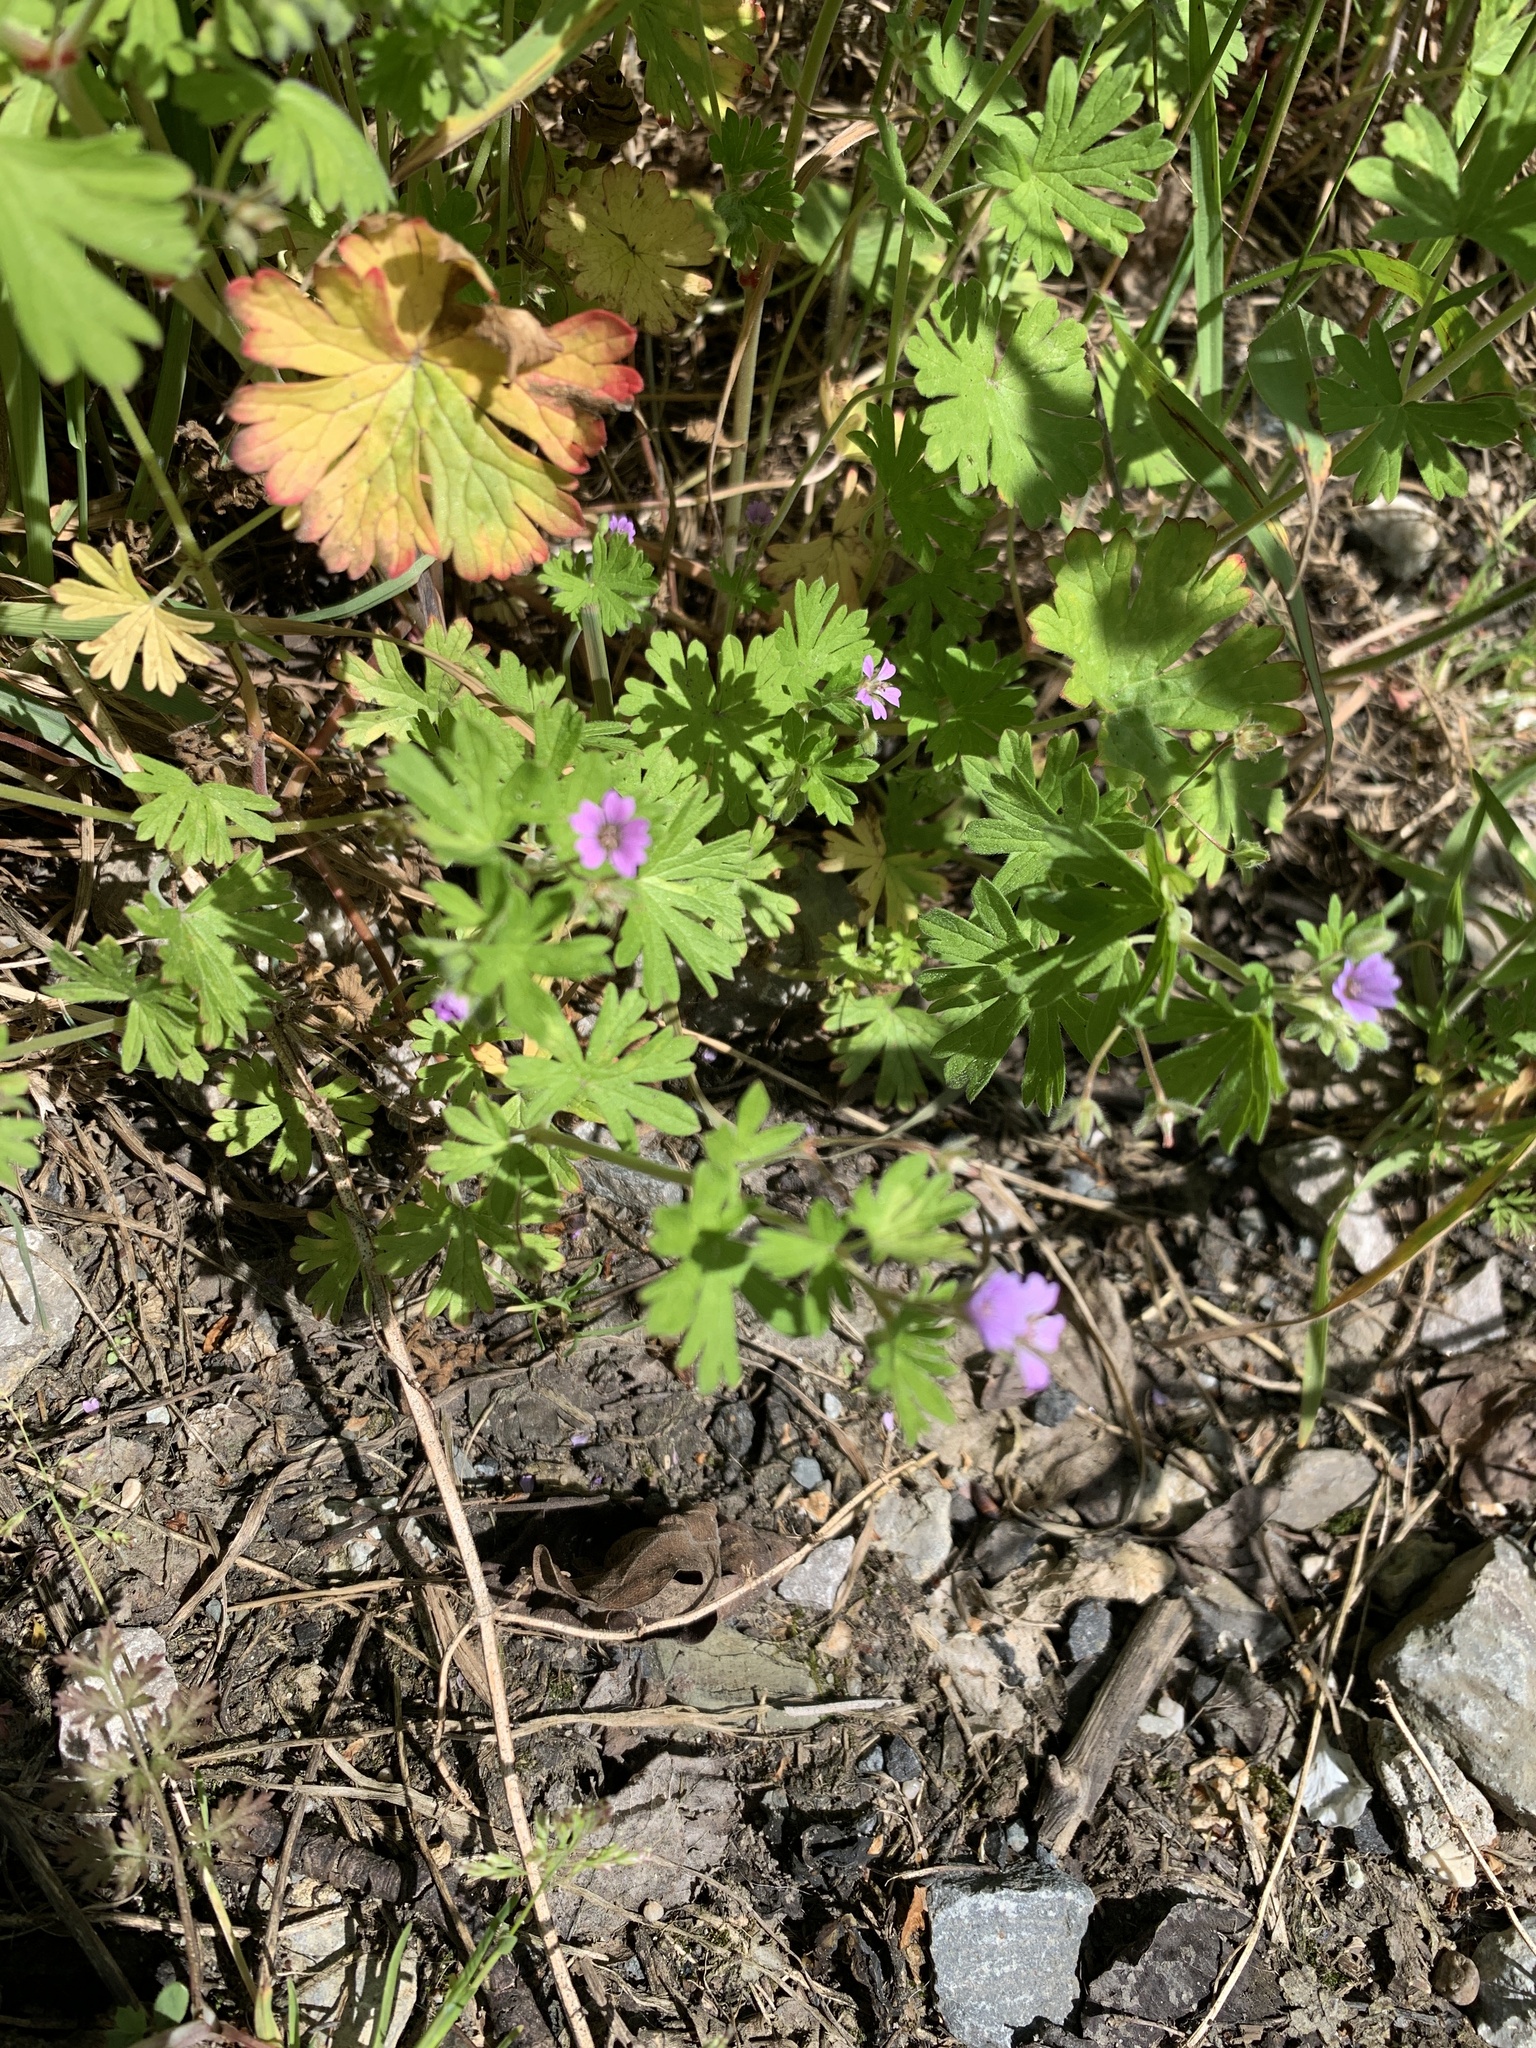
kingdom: Plantae
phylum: Tracheophyta
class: Magnoliopsida
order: Geraniales
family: Geraniaceae
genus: Geranium
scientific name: Geranium pusillum
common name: Small geranium
